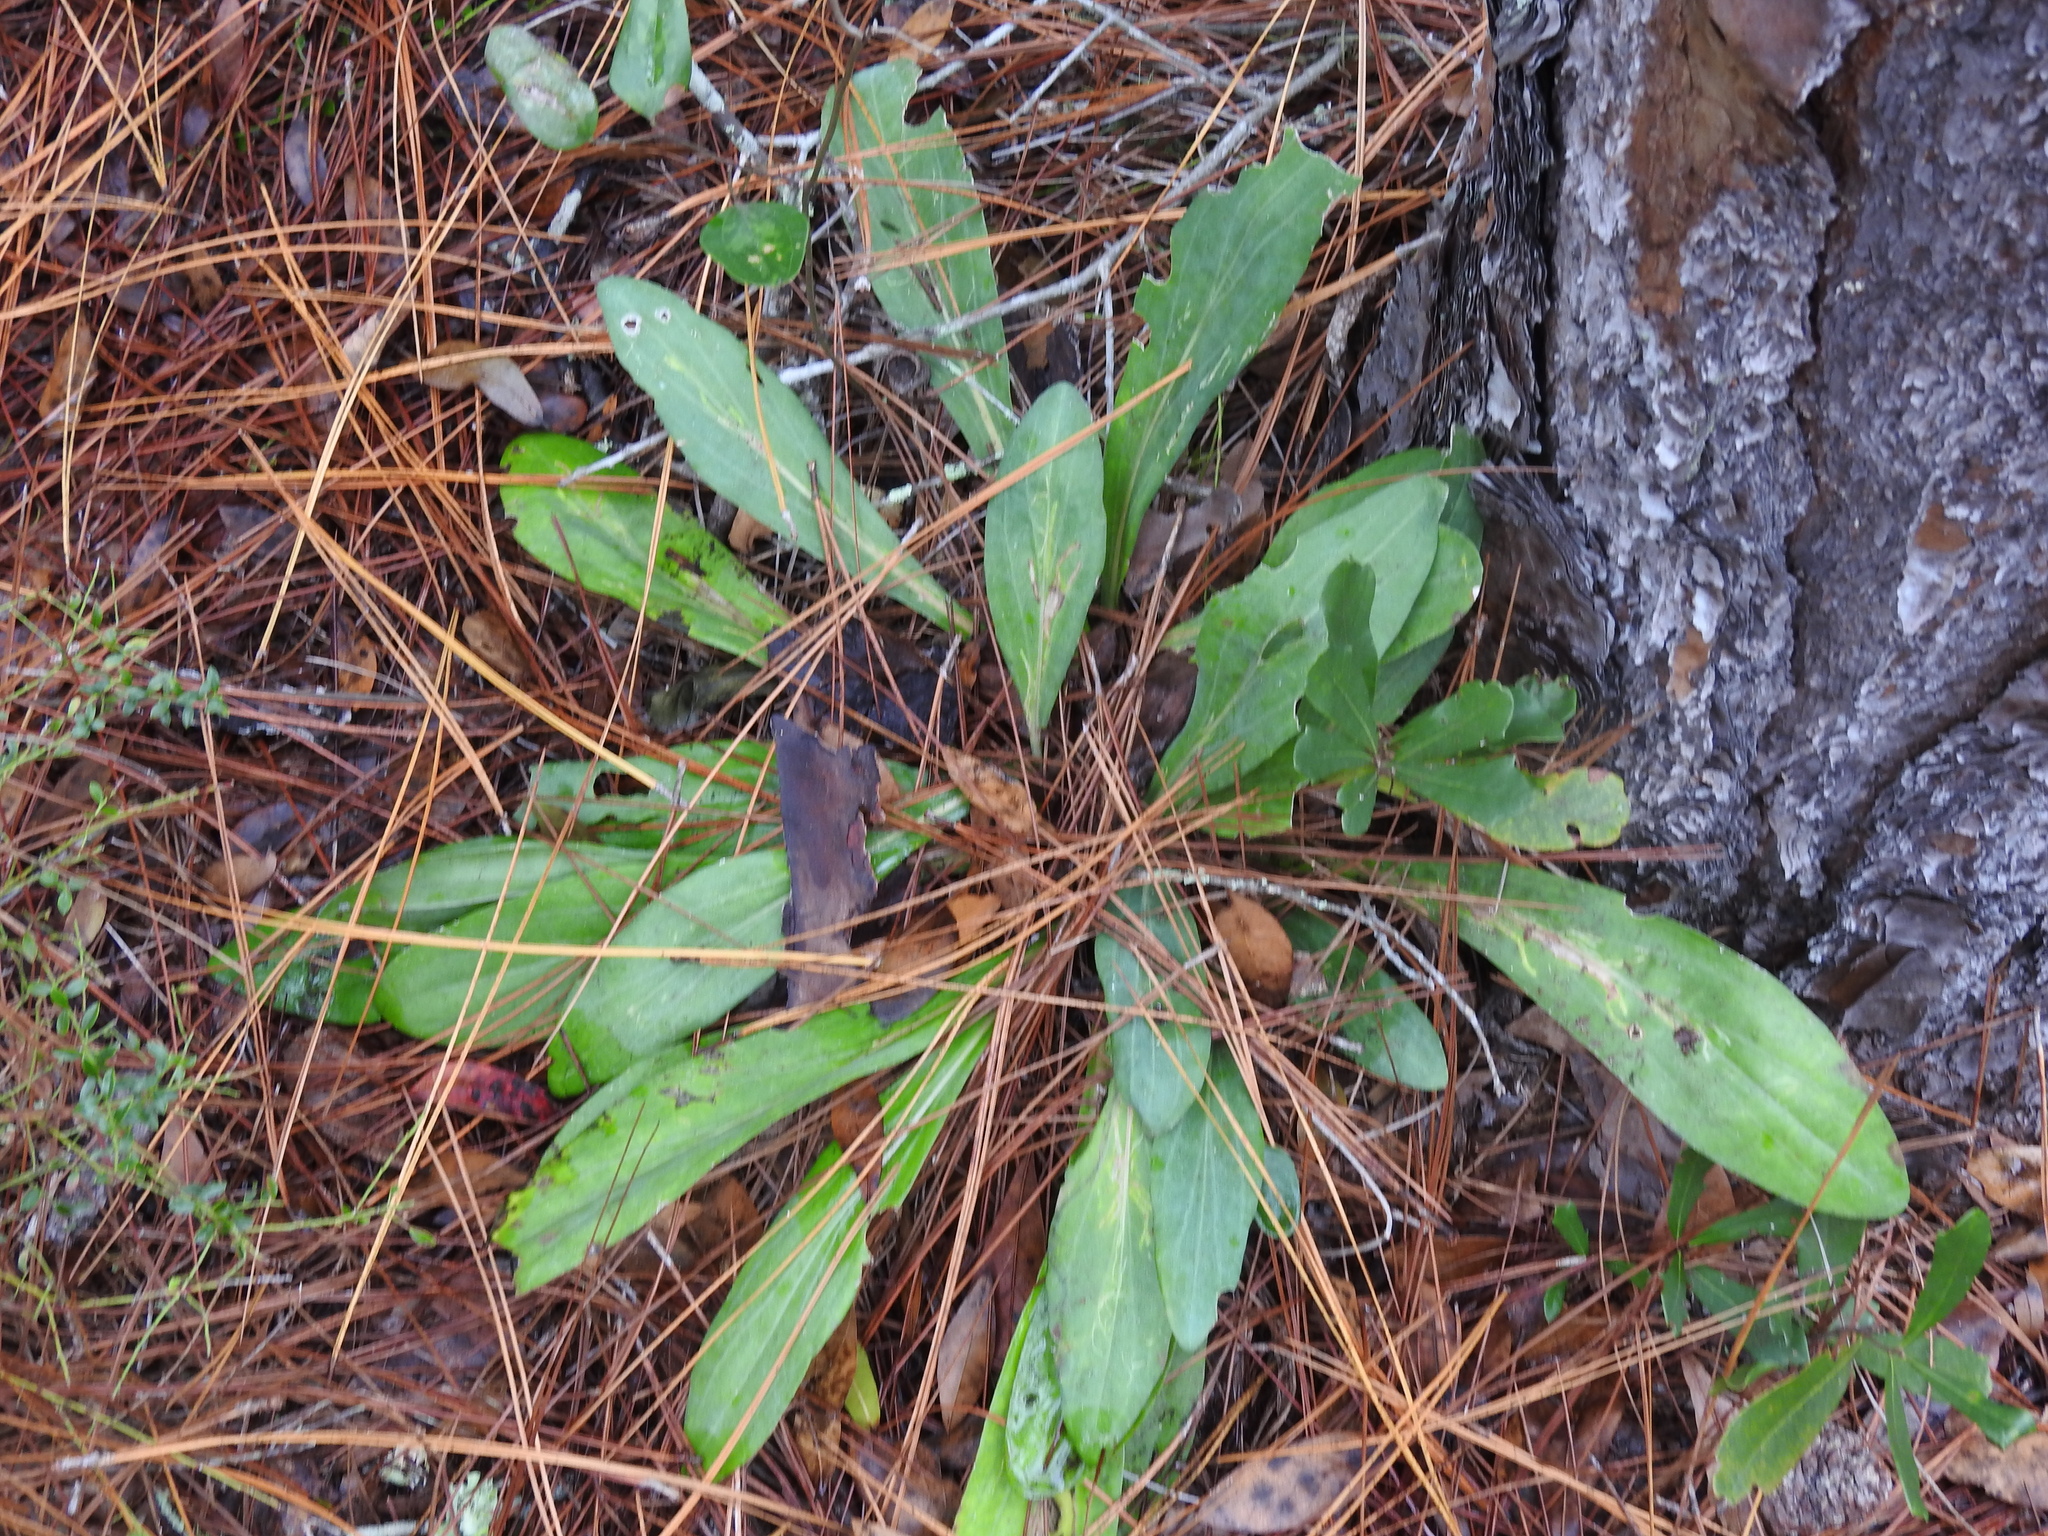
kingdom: Plantae
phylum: Tracheophyta
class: Magnoliopsida
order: Asterales
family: Asteraceae
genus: Carphephorus
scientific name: Carphephorus odoratissimus
